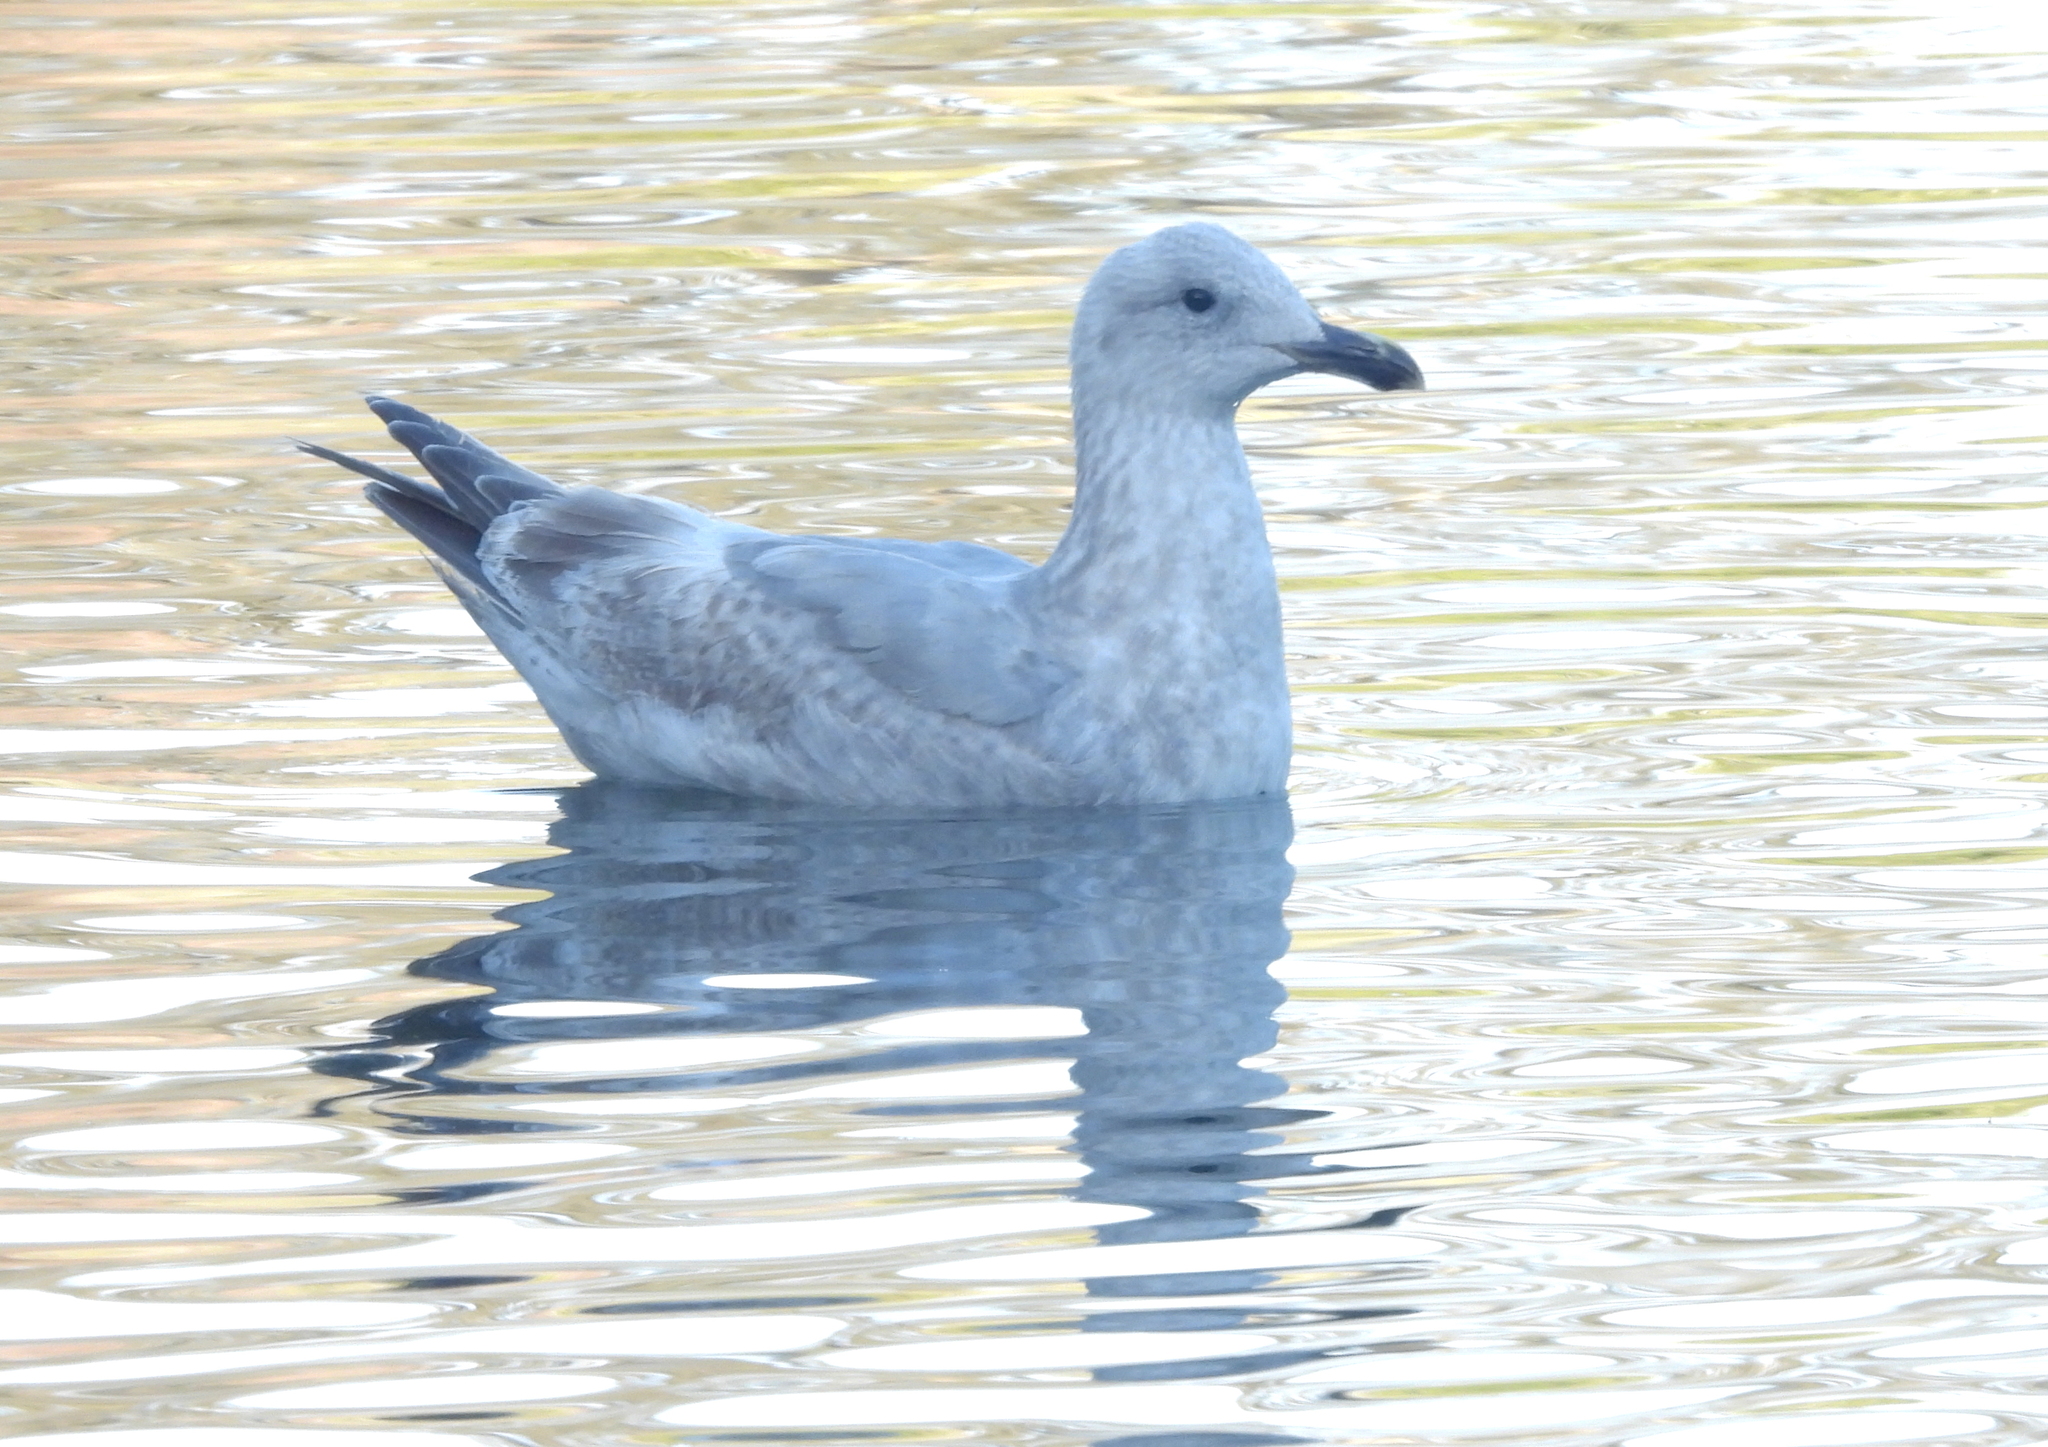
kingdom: Animalia
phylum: Chordata
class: Aves
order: Charadriiformes
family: Laridae
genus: Larus
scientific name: Larus
